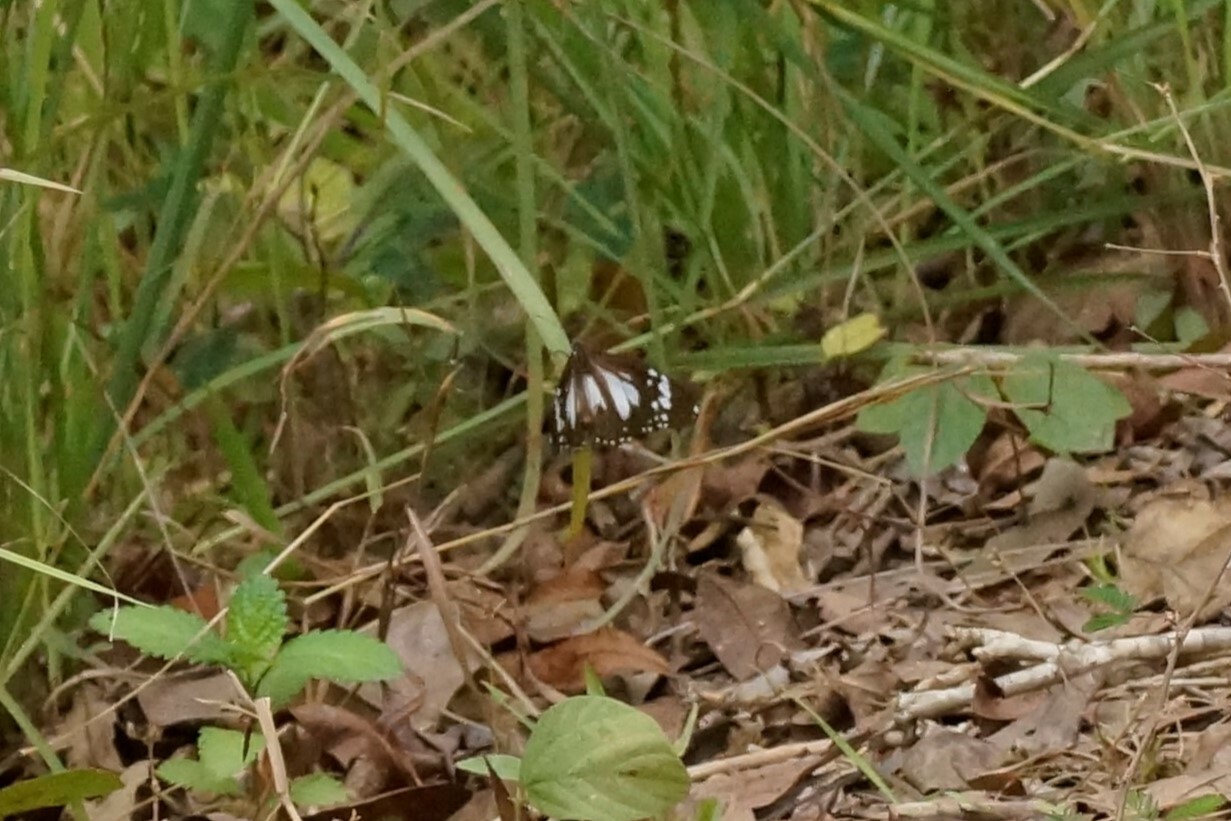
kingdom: Animalia
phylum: Arthropoda
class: Insecta
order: Lepidoptera
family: Nymphalidae
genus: Danaus
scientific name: Danaus affinis
